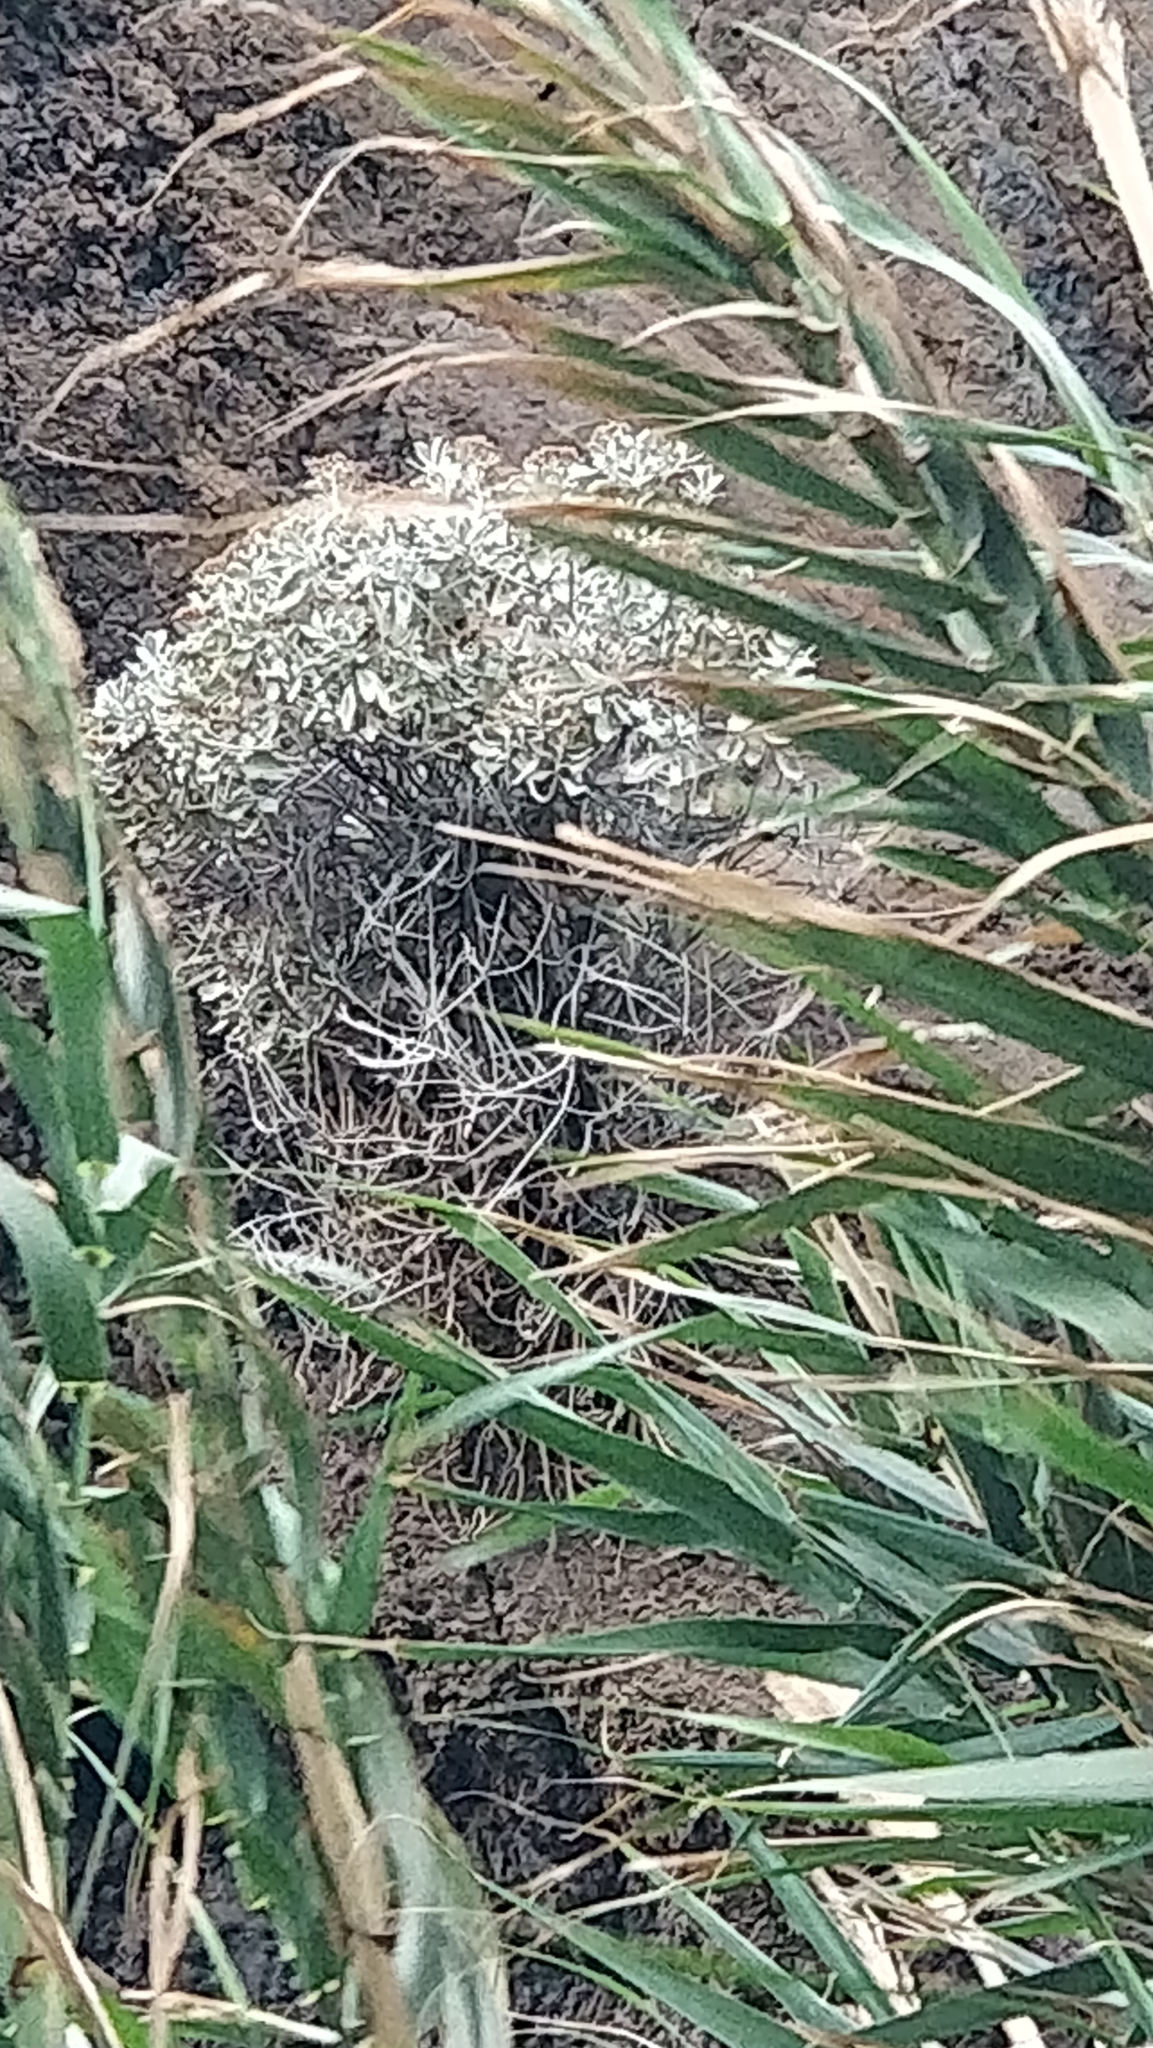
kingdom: Plantae
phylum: Tracheophyta
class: Magnoliopsida
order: Asterales
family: Asteraceae
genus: Helichrysum
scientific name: Helichrysum obconicum
